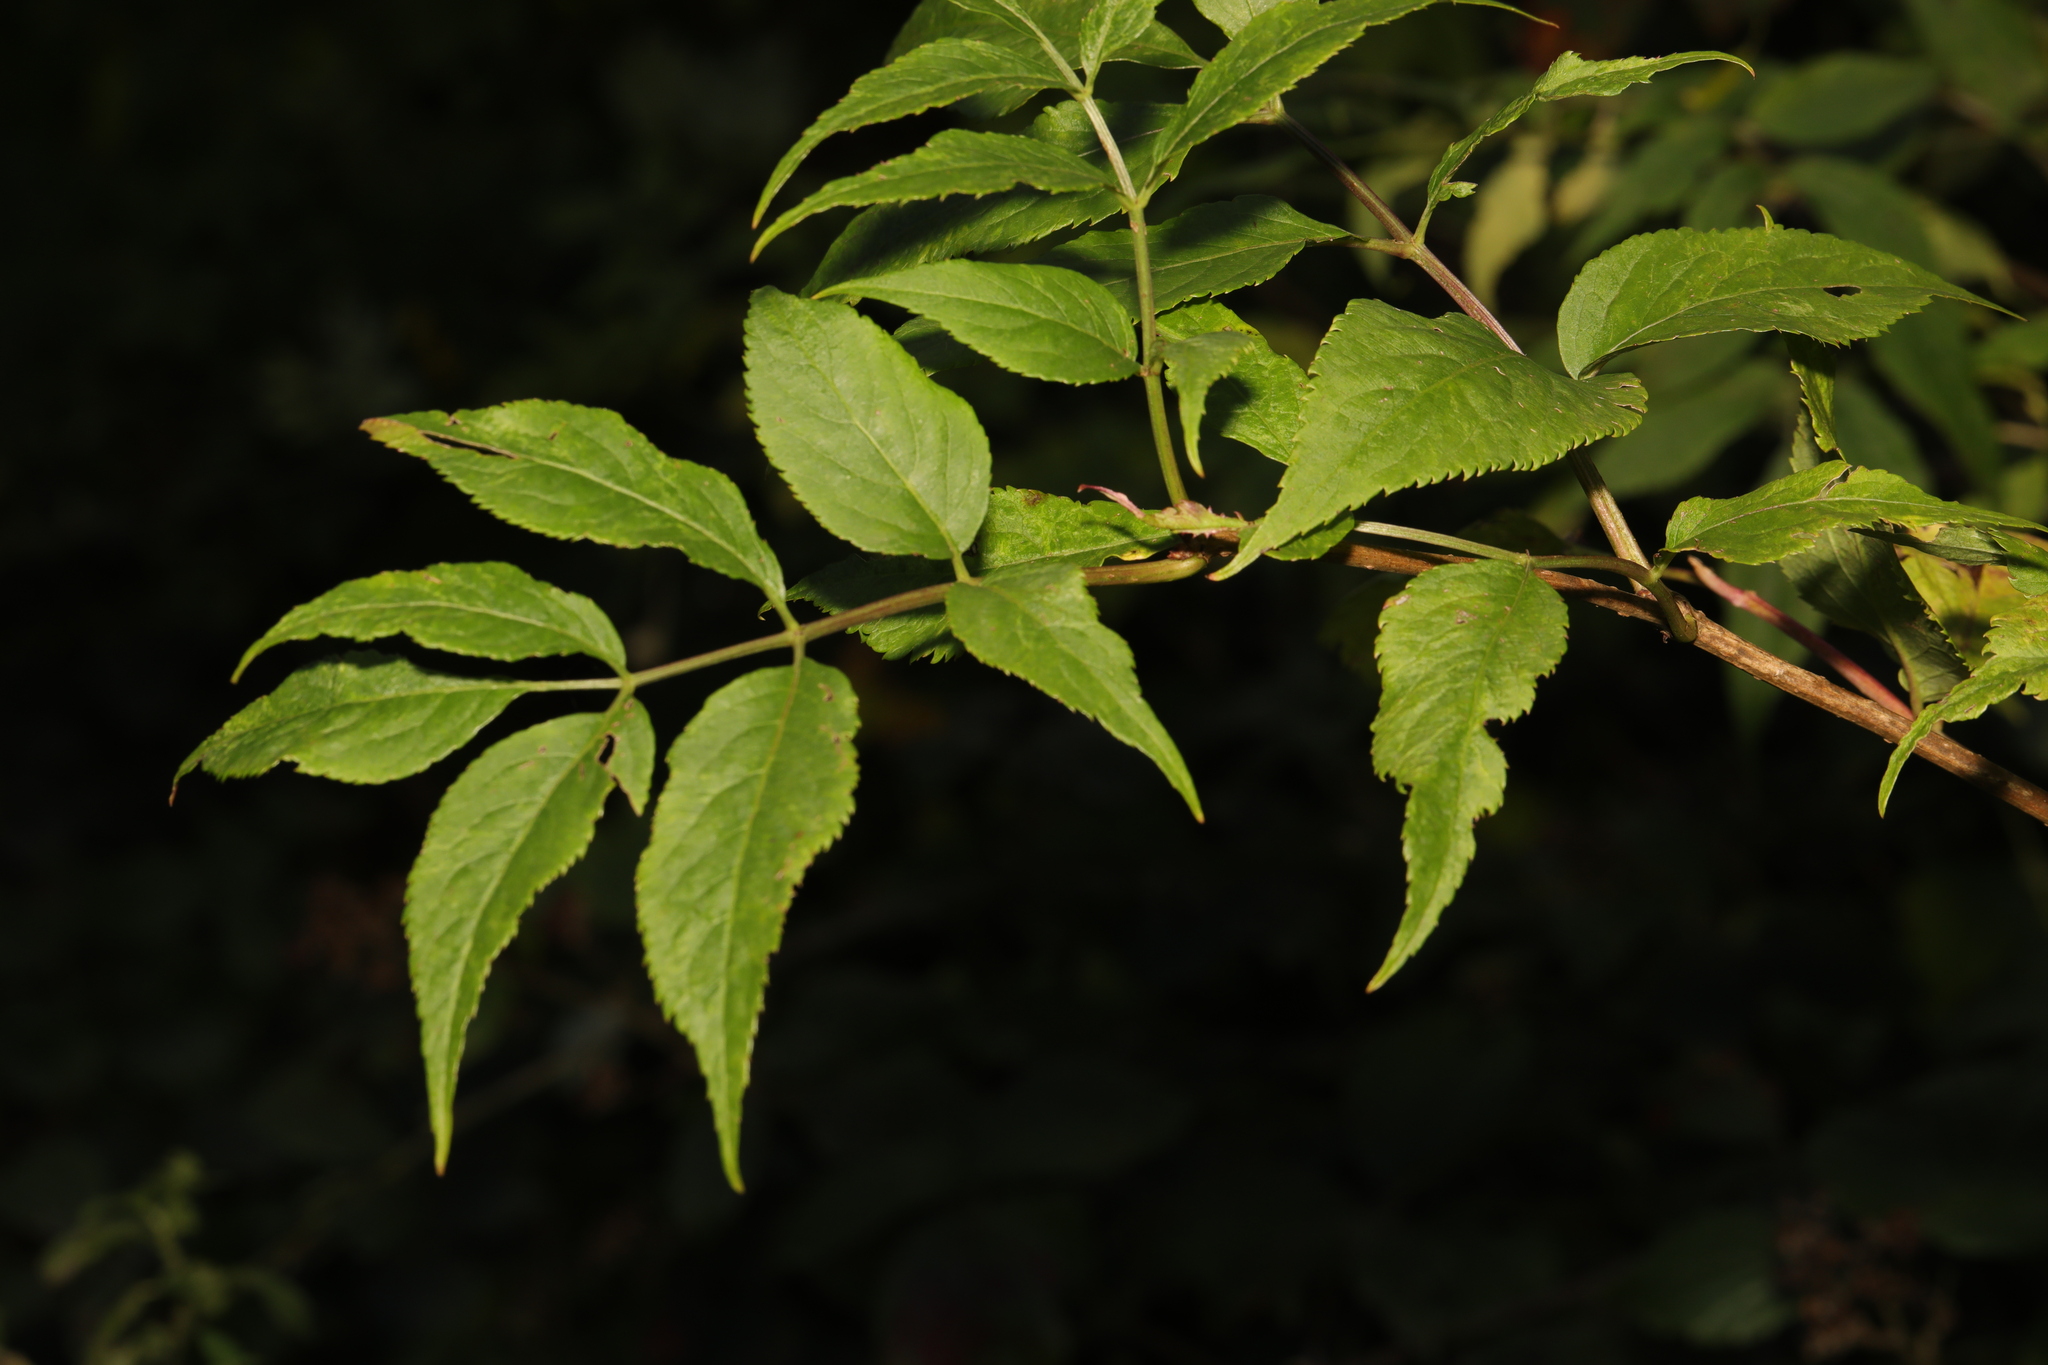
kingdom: Plantae
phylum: Tracheophyta
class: Magnoliopsida
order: Dipsacales
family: Viburnaceae
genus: Sambucus
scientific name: Sambucus nigra
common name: Elder
